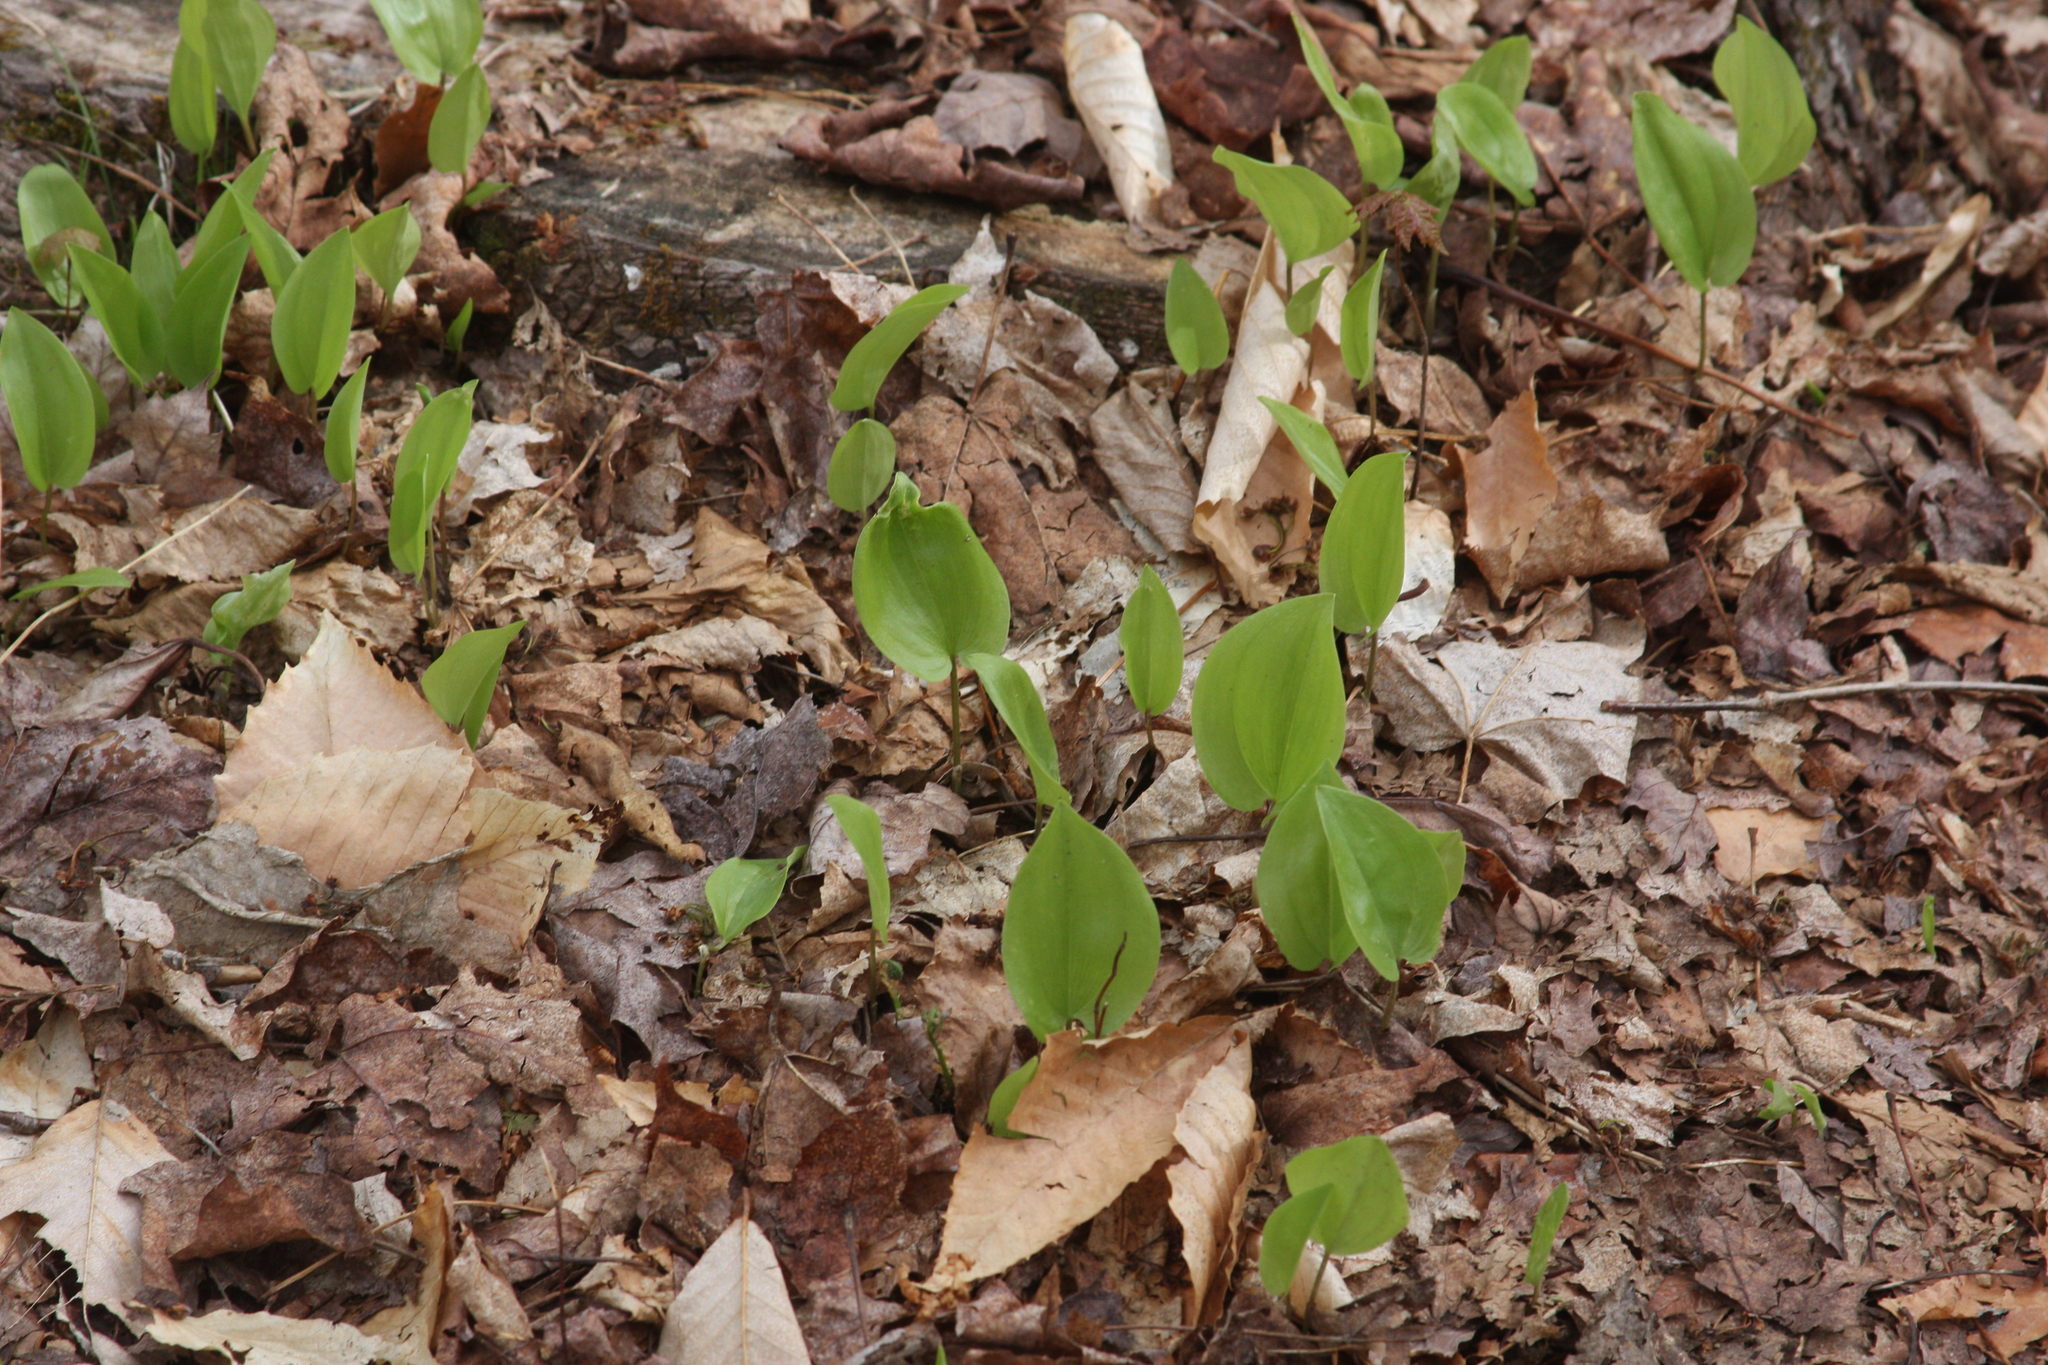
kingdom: Plantae
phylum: Tracheophyta
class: Liliopsida
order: Asparagales
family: Asparagaceae
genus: Maianthemum
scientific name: Maianthemum canadense
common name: False lily-of-the-valley
